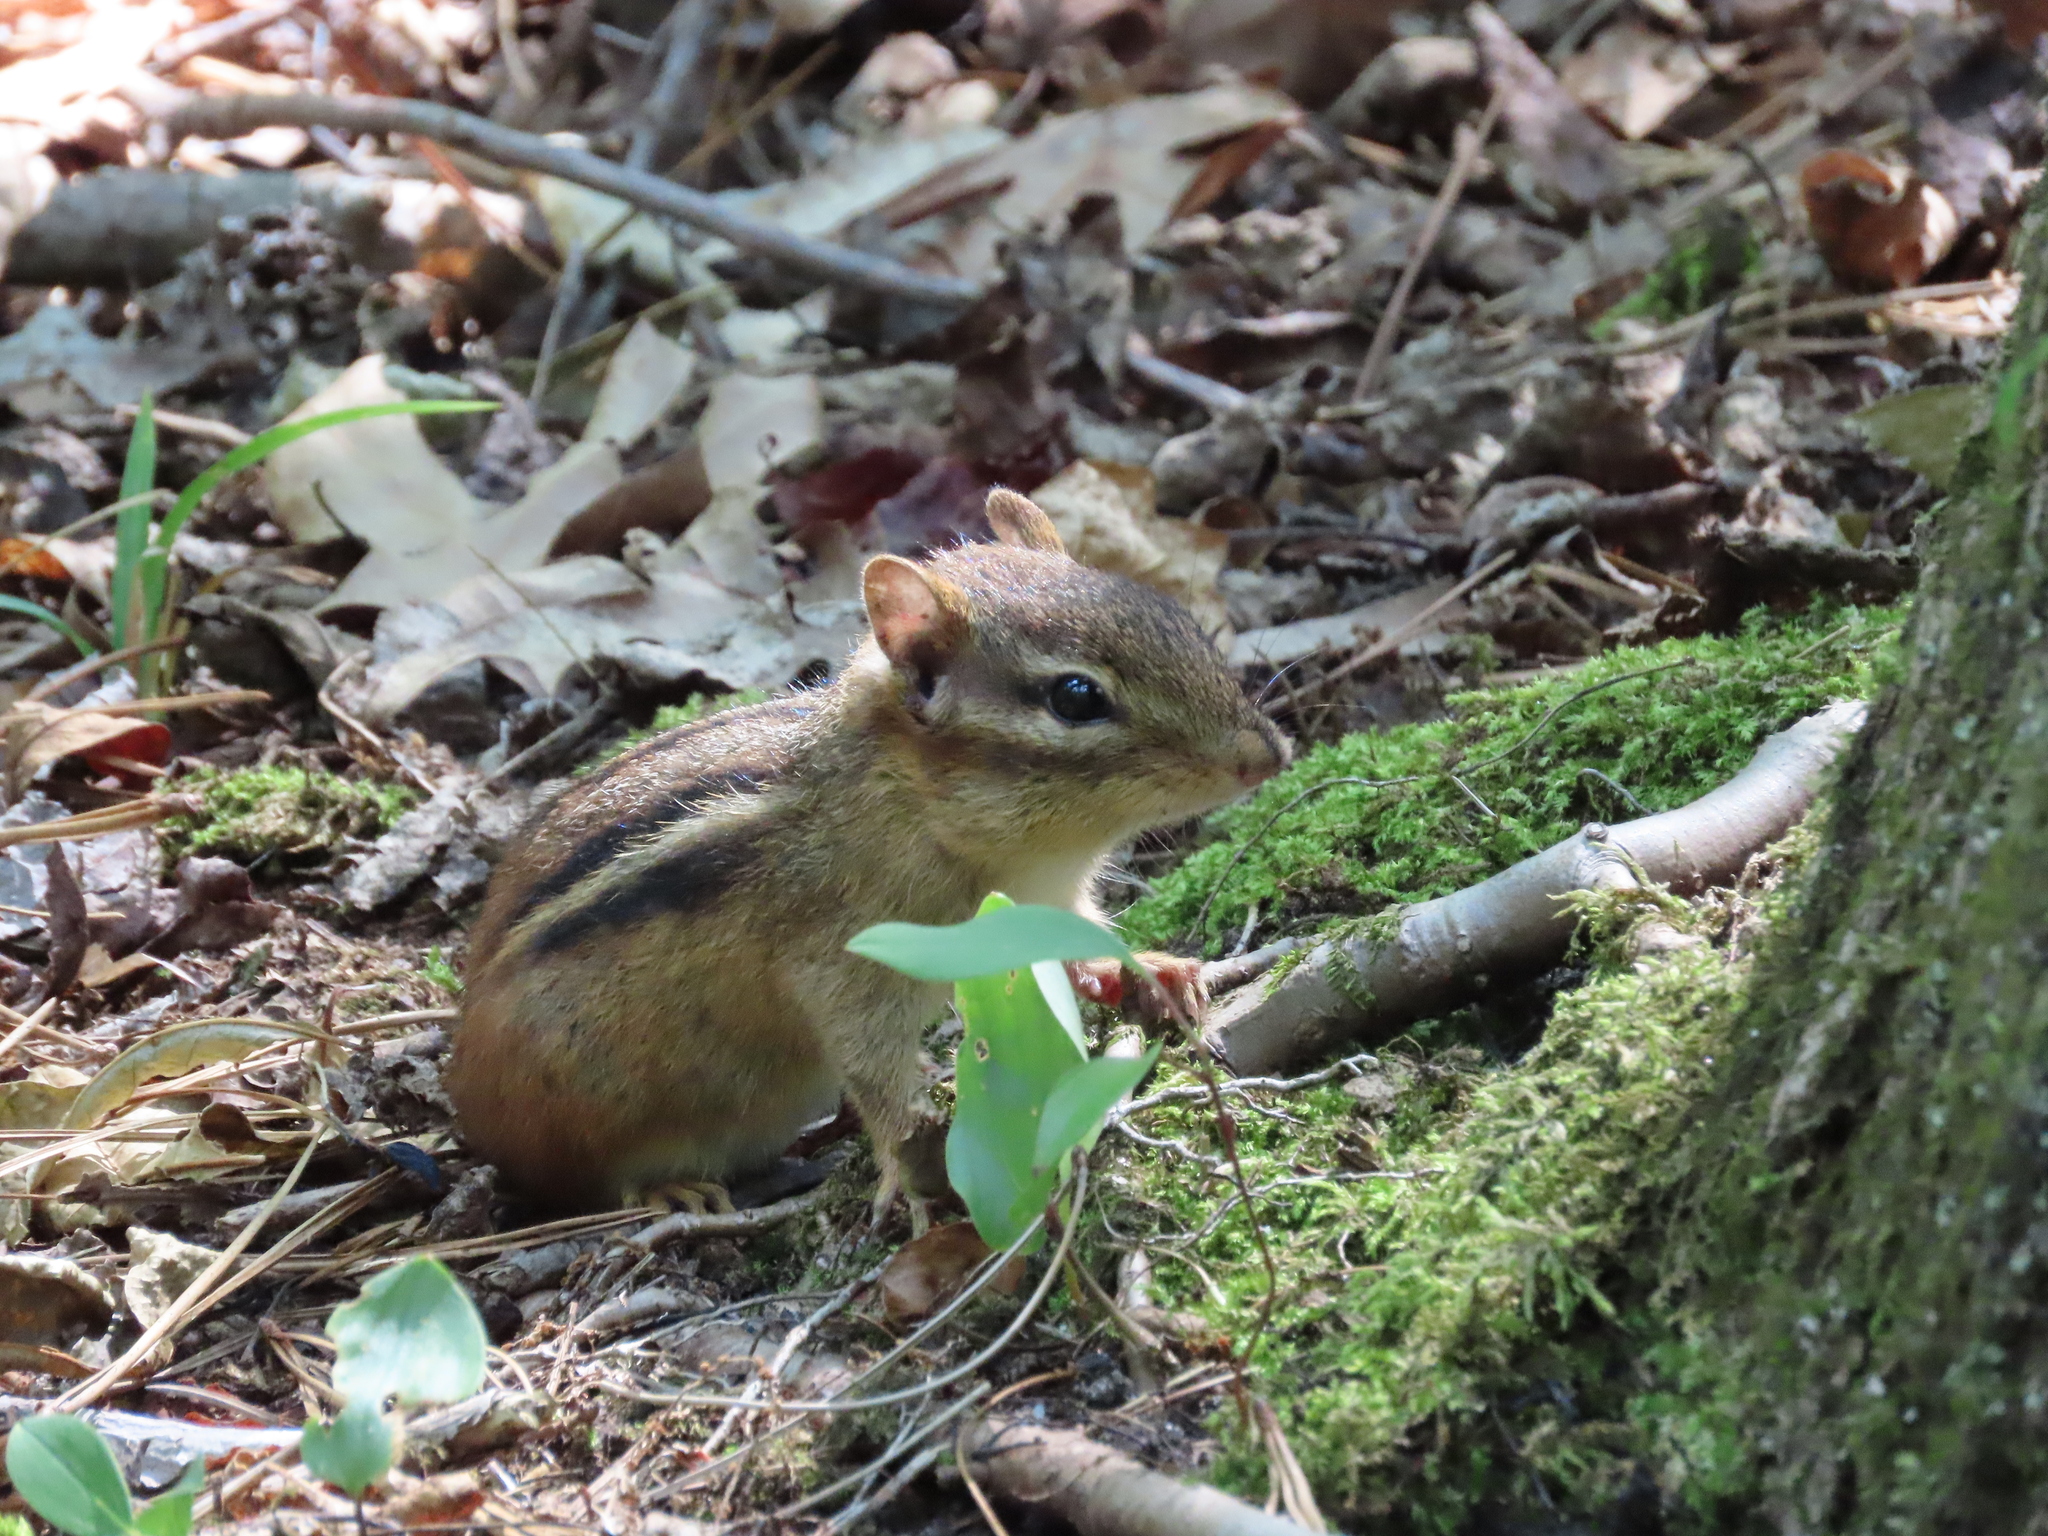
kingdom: Animalia
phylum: Chordata
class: Mammalia
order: Rodentia
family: Sciuridae
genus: Tamias
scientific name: Tamias striatus
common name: Eastern chipmunk
